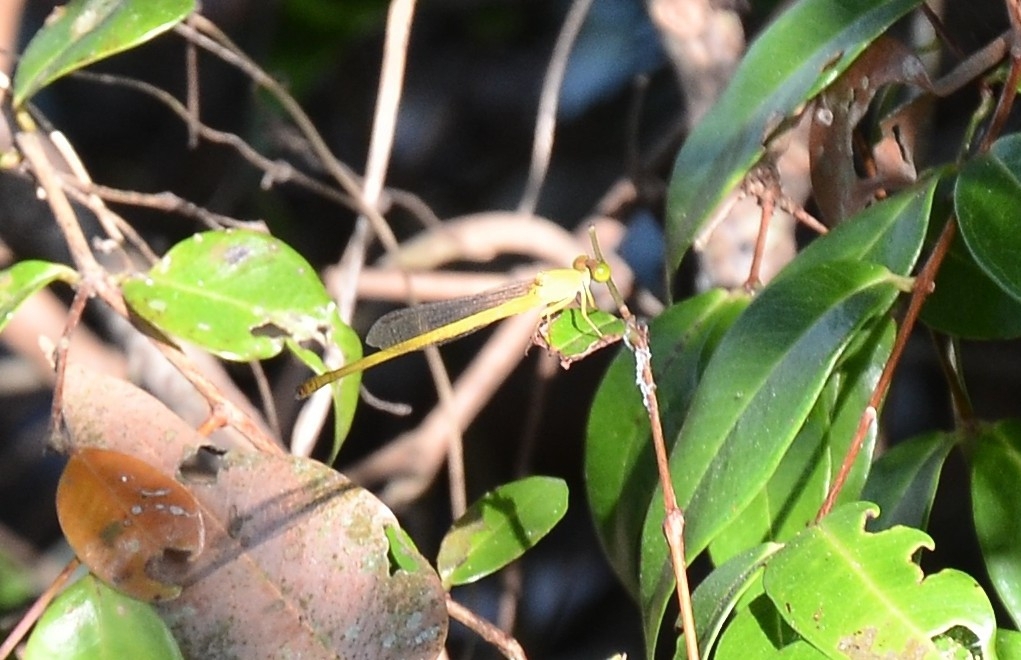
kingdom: Animalia
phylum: Arthropoda
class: Insecta
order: Odonata
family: Coenagrionidae
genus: Ceriagrion
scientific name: Ceriagrion coromandelianum
